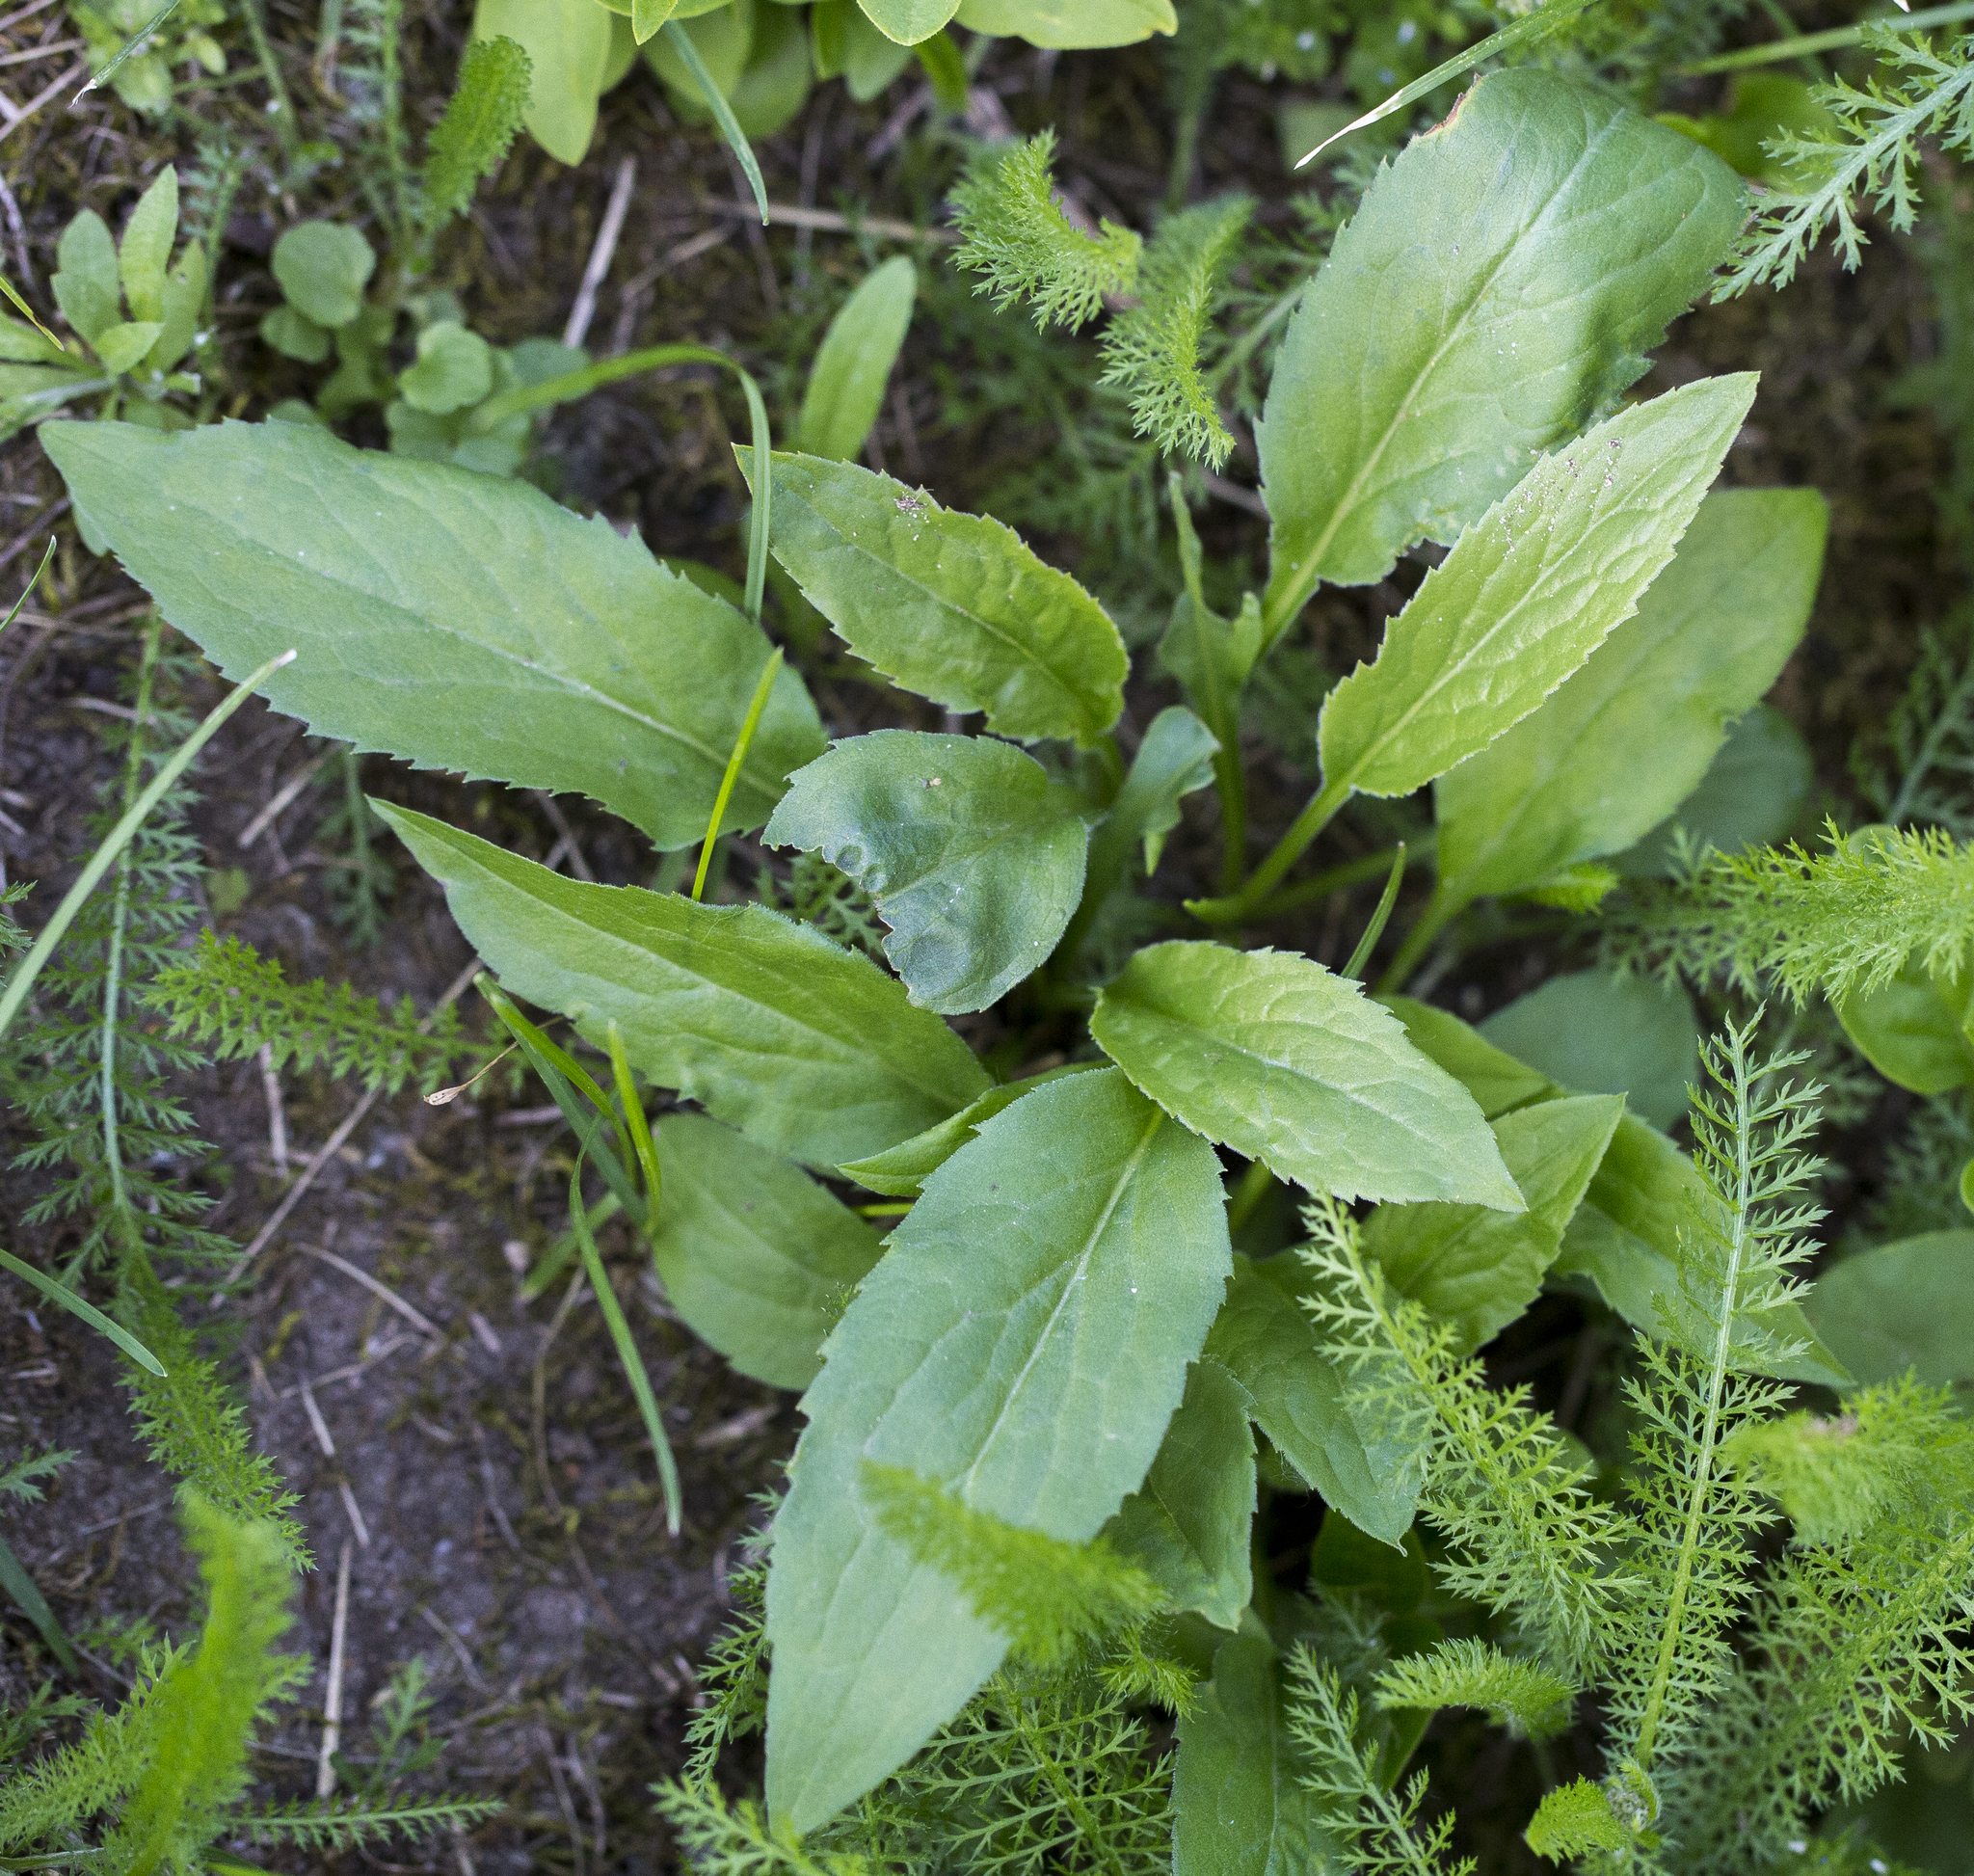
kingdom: Plantae
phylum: Tracheophyta
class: Magnoliopsida
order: Asterales
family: Asteraceae
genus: Solidago
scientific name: Solidago virgaurea
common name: Goldenrod
